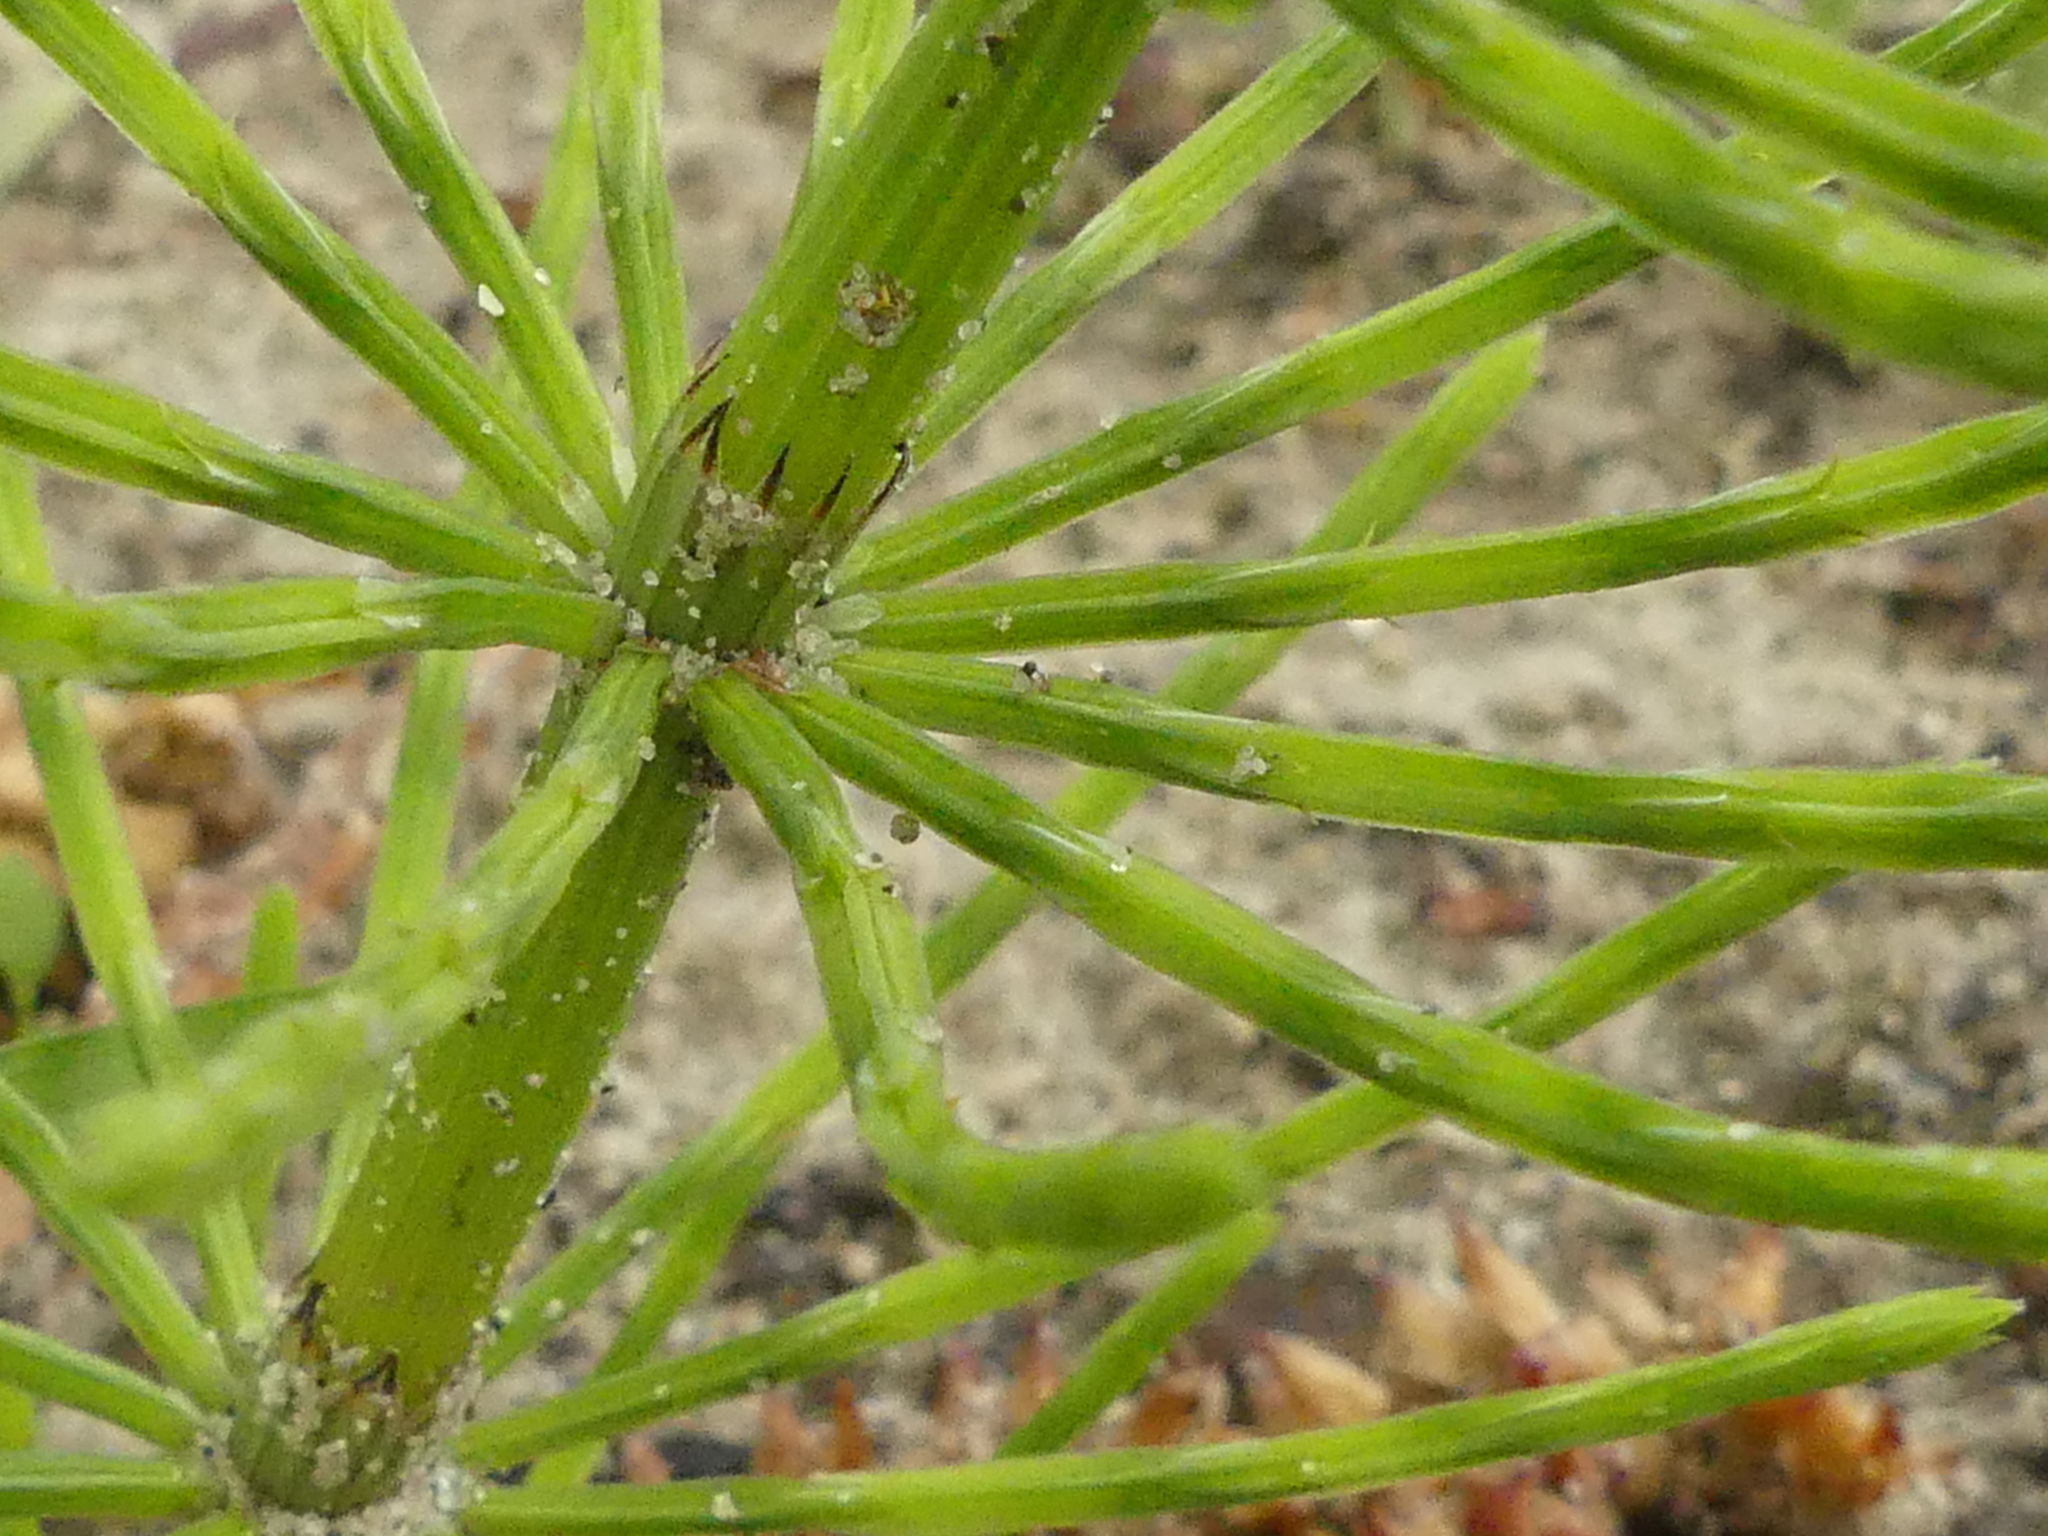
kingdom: Plantae
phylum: Tracheophyta
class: Polypodiopsida
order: Equisetales
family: Equisetaceae
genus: Equisetum
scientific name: Equisetum arvense
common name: Field horsetail
